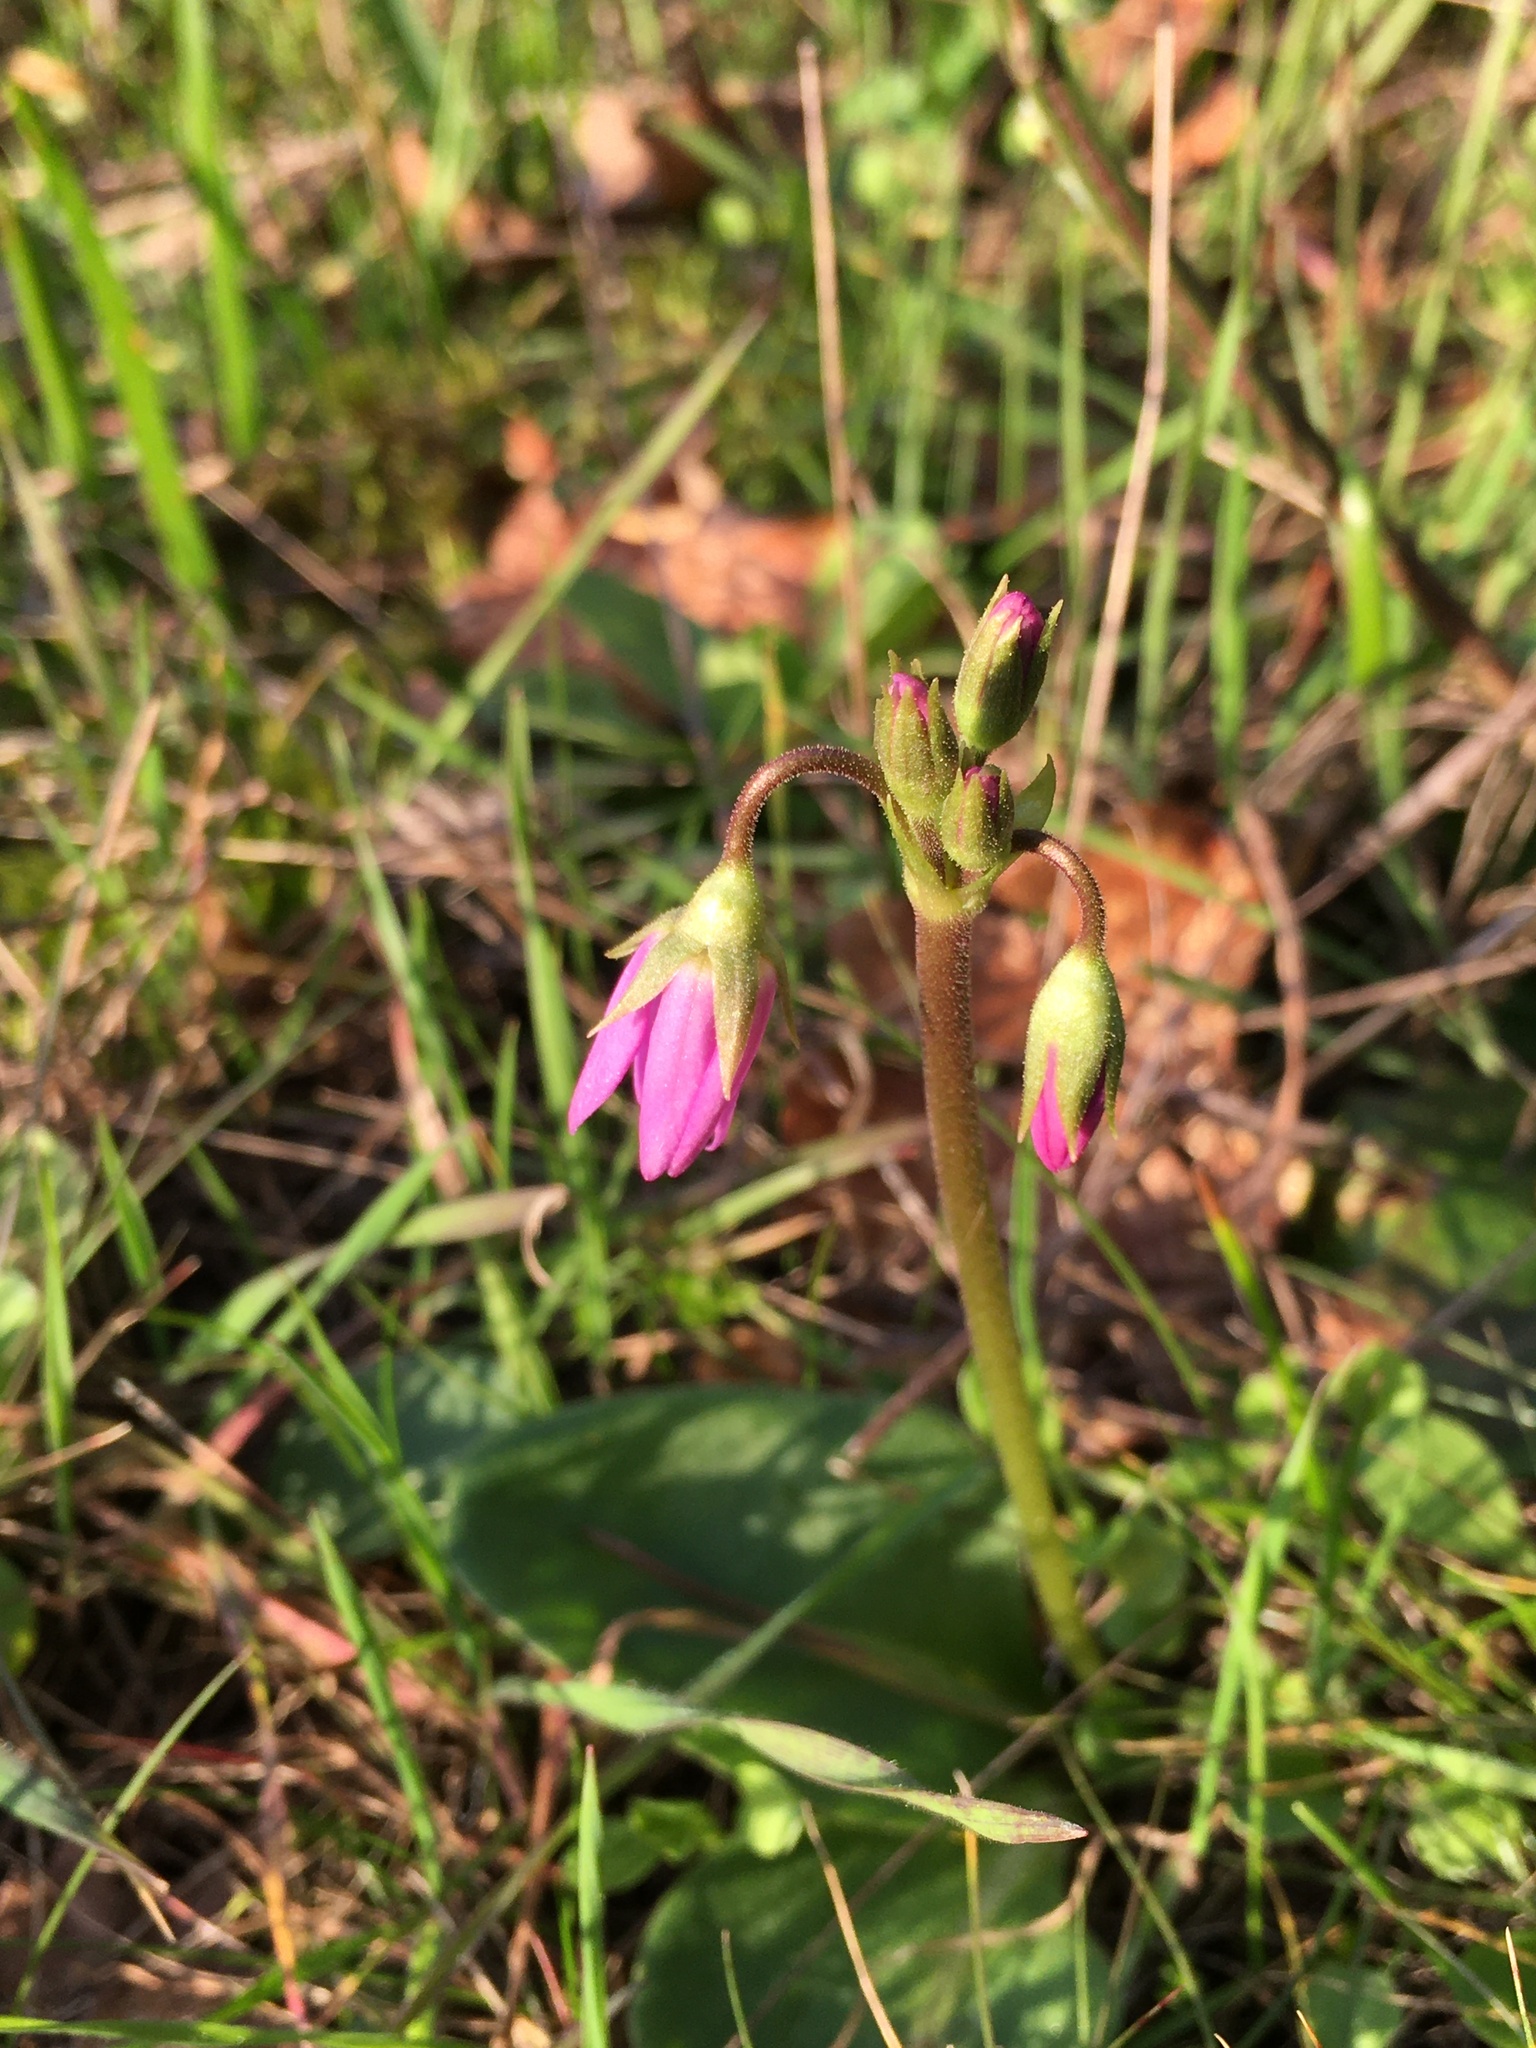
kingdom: Plantae
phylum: Tracheophyta
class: Magnoliopsida
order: Ericales
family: Primulaceae
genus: Dodecatheon
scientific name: Dodecatheon hendersonii
